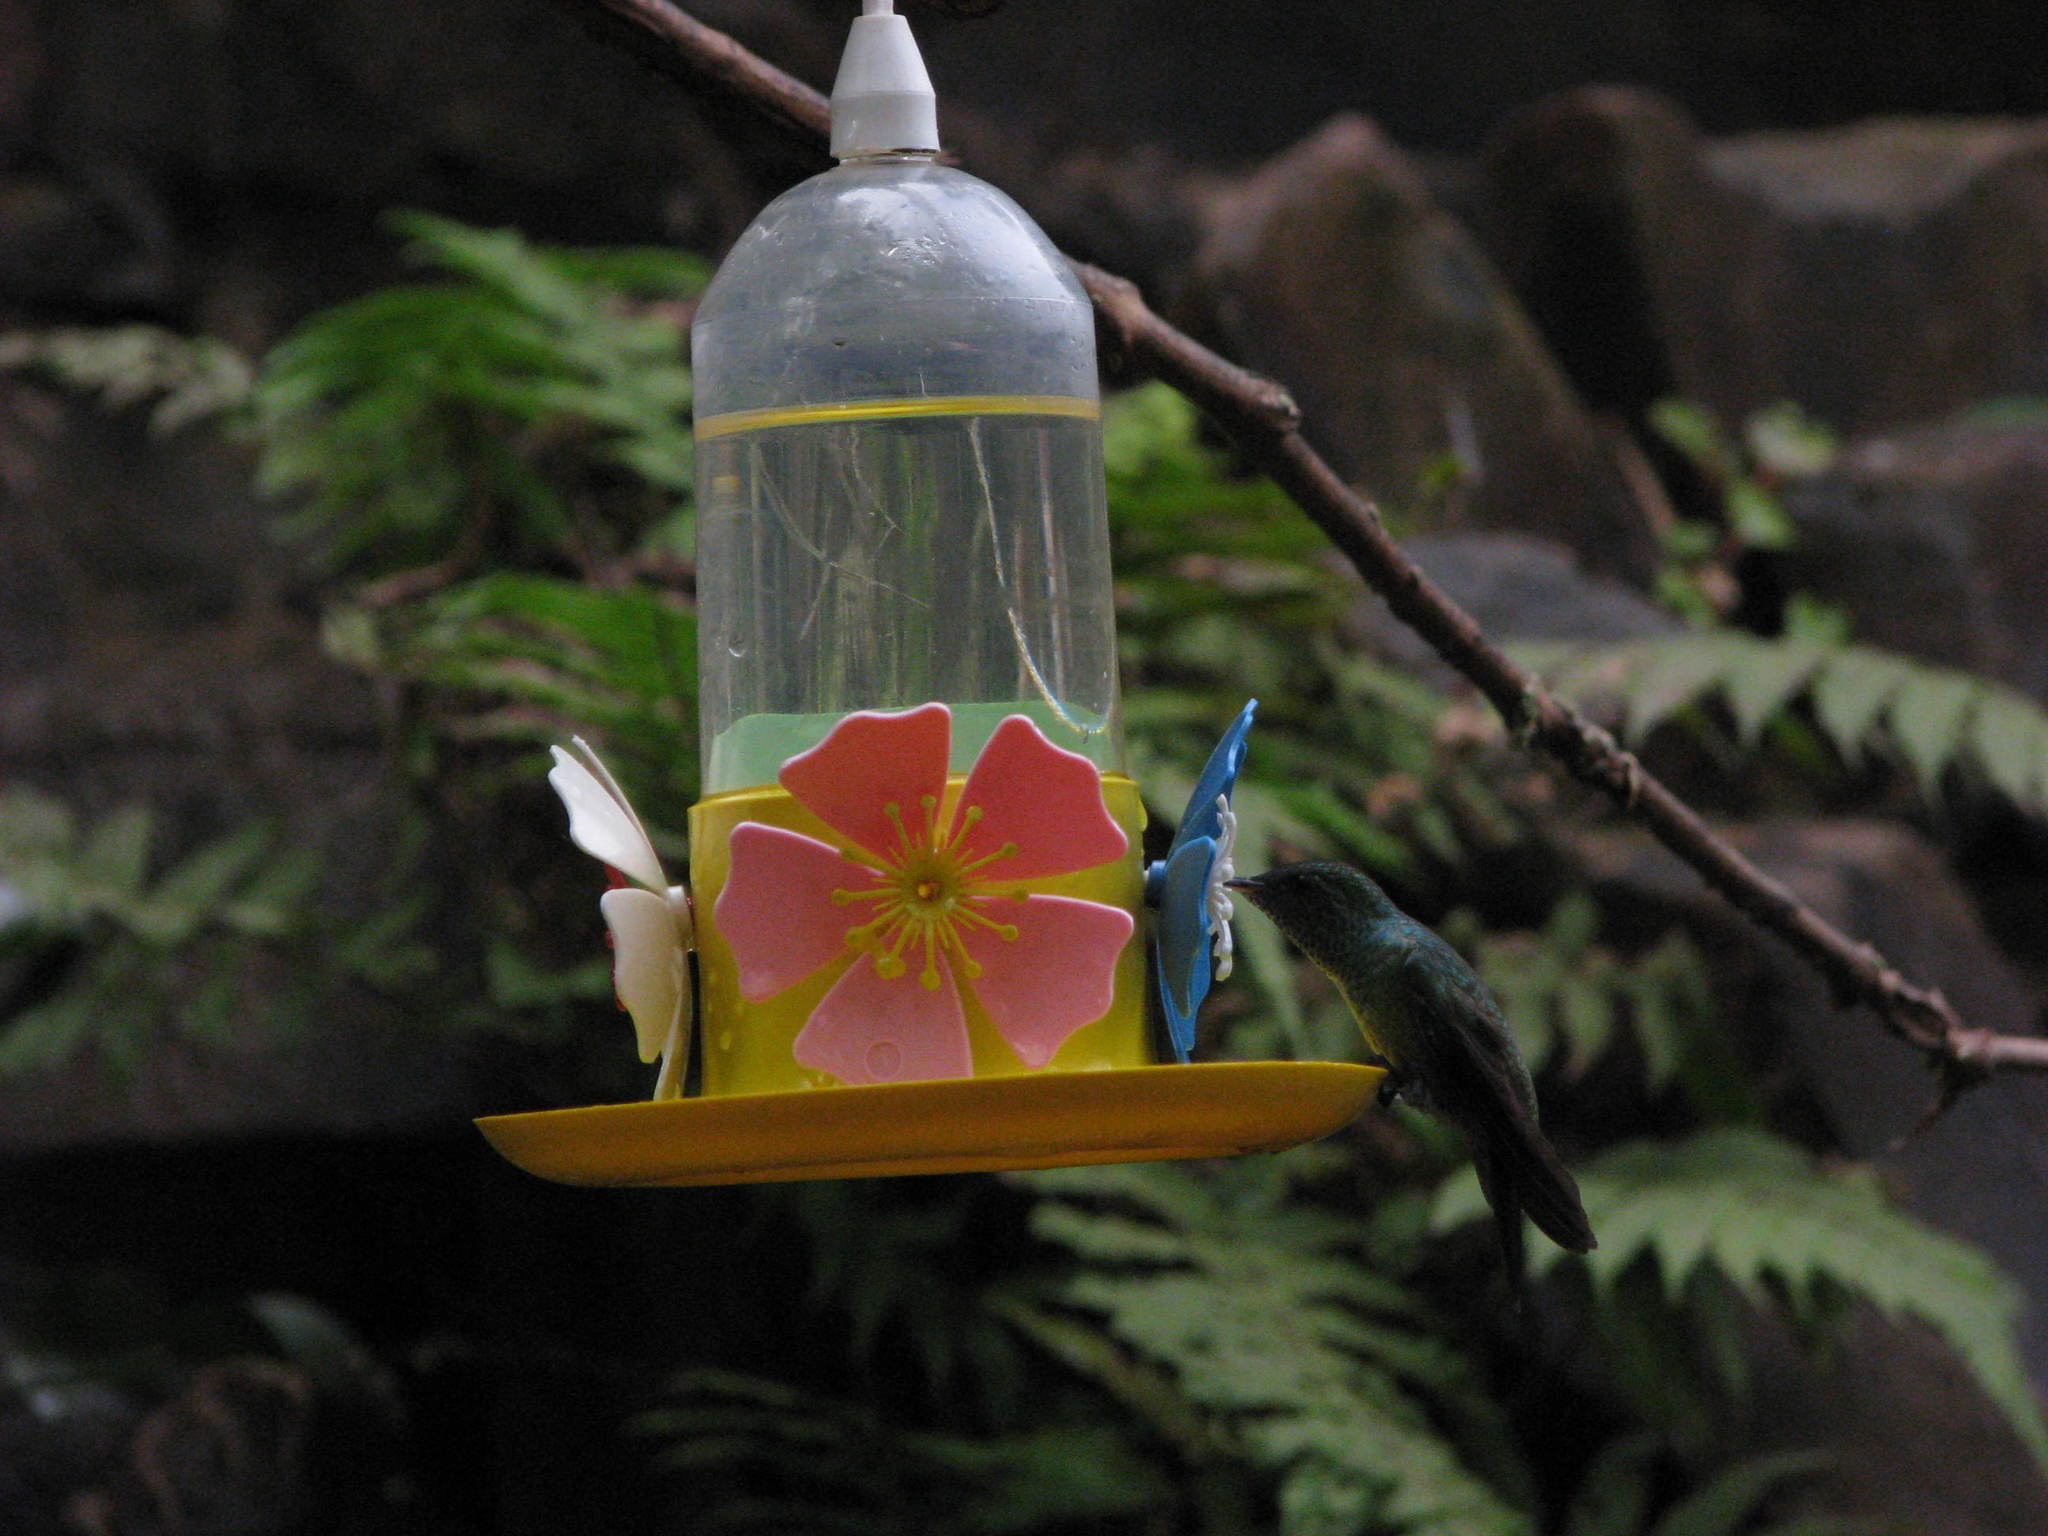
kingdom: Animalia
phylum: Chordata
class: Aves
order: Apodiformes
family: Trochilidae
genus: Chrysuronia
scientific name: Chrysuronia versicolor
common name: Versicolored emerald
